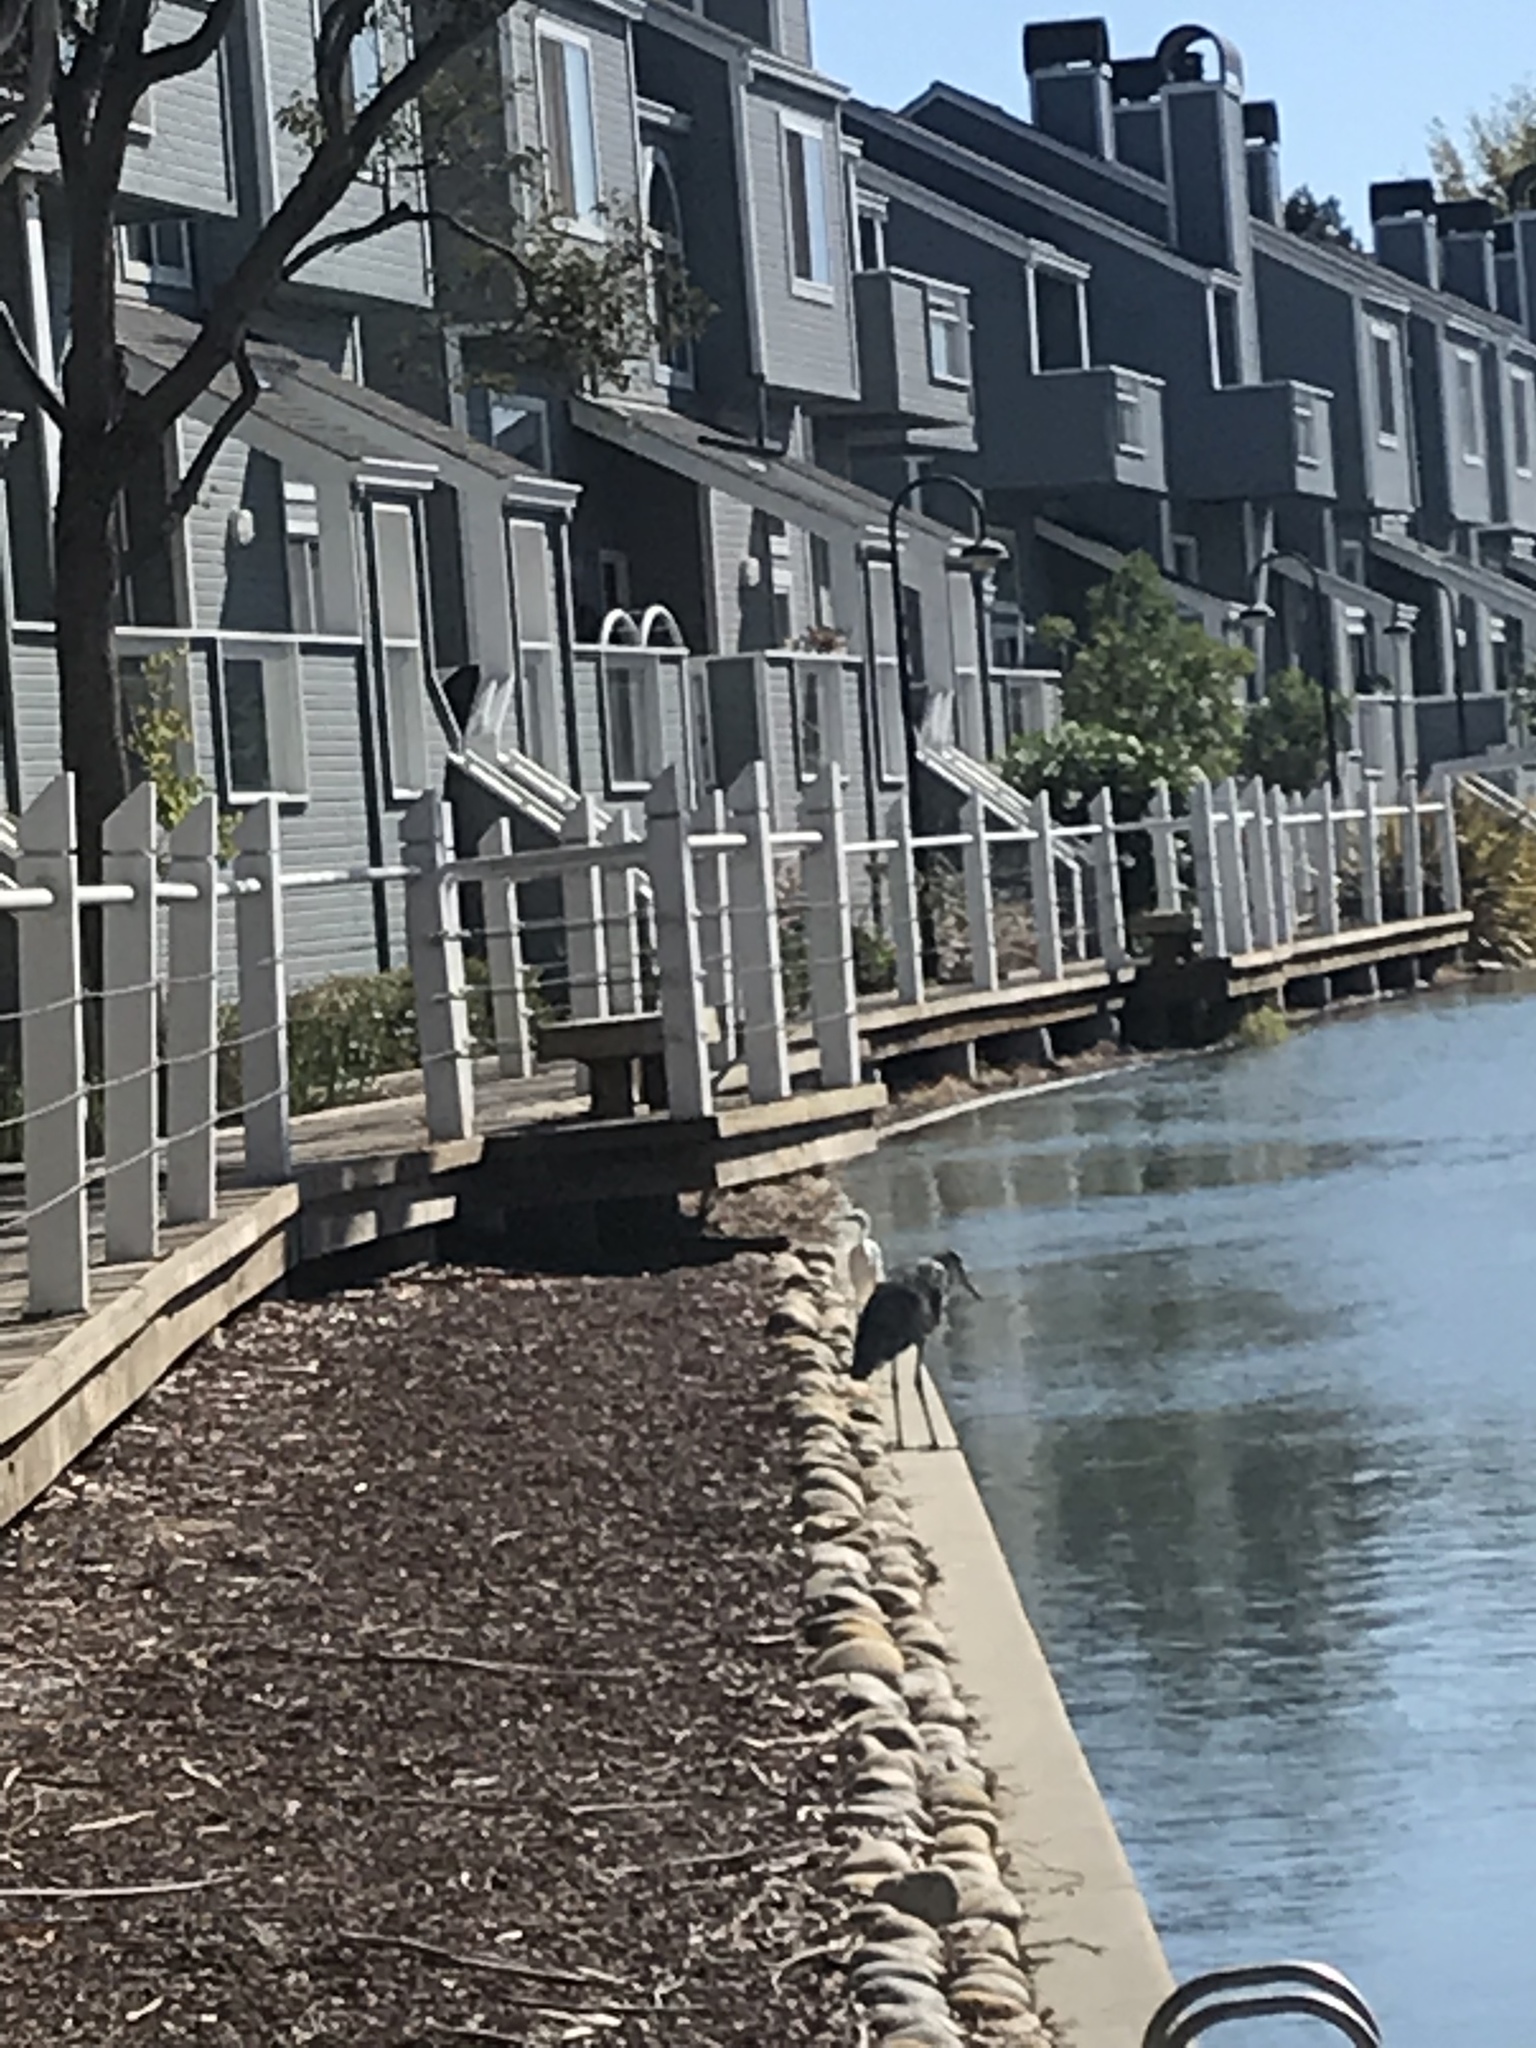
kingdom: Animalia
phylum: Chordata
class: Aves
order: Pelecaniformes
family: Ardeidae
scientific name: Ardeidae
